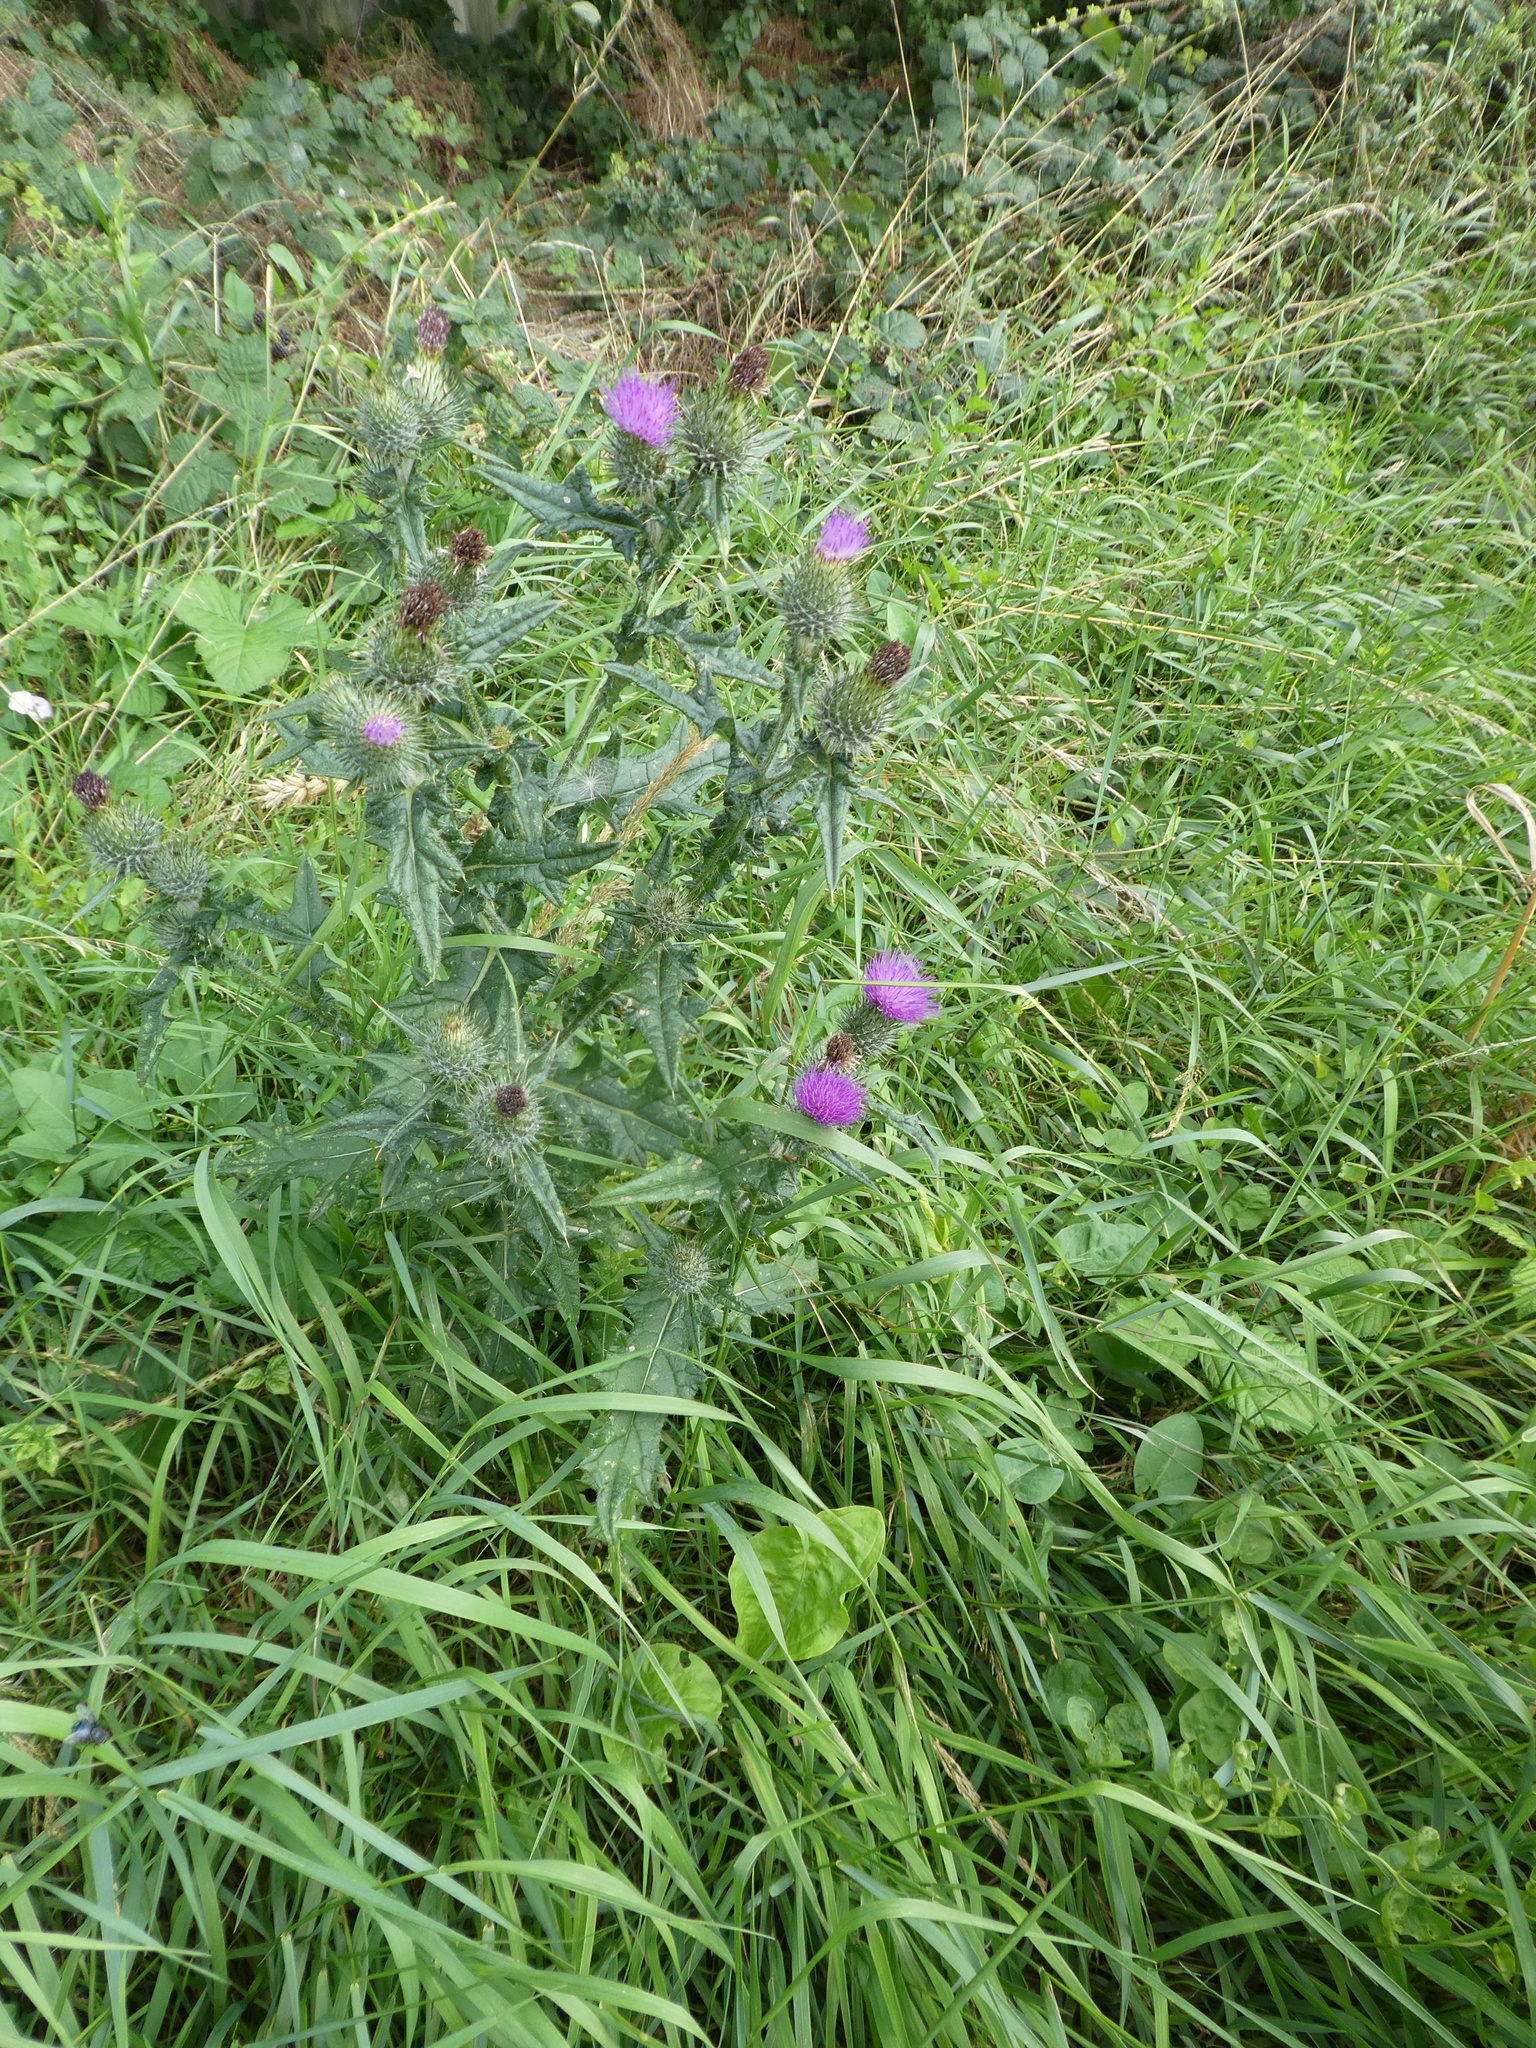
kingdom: Plantae
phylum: Tracheophyta
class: Magnoliopsida
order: Asterales
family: Asteraceae
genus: Cirsium
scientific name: Cirsium vulgare
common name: Bull thistle
